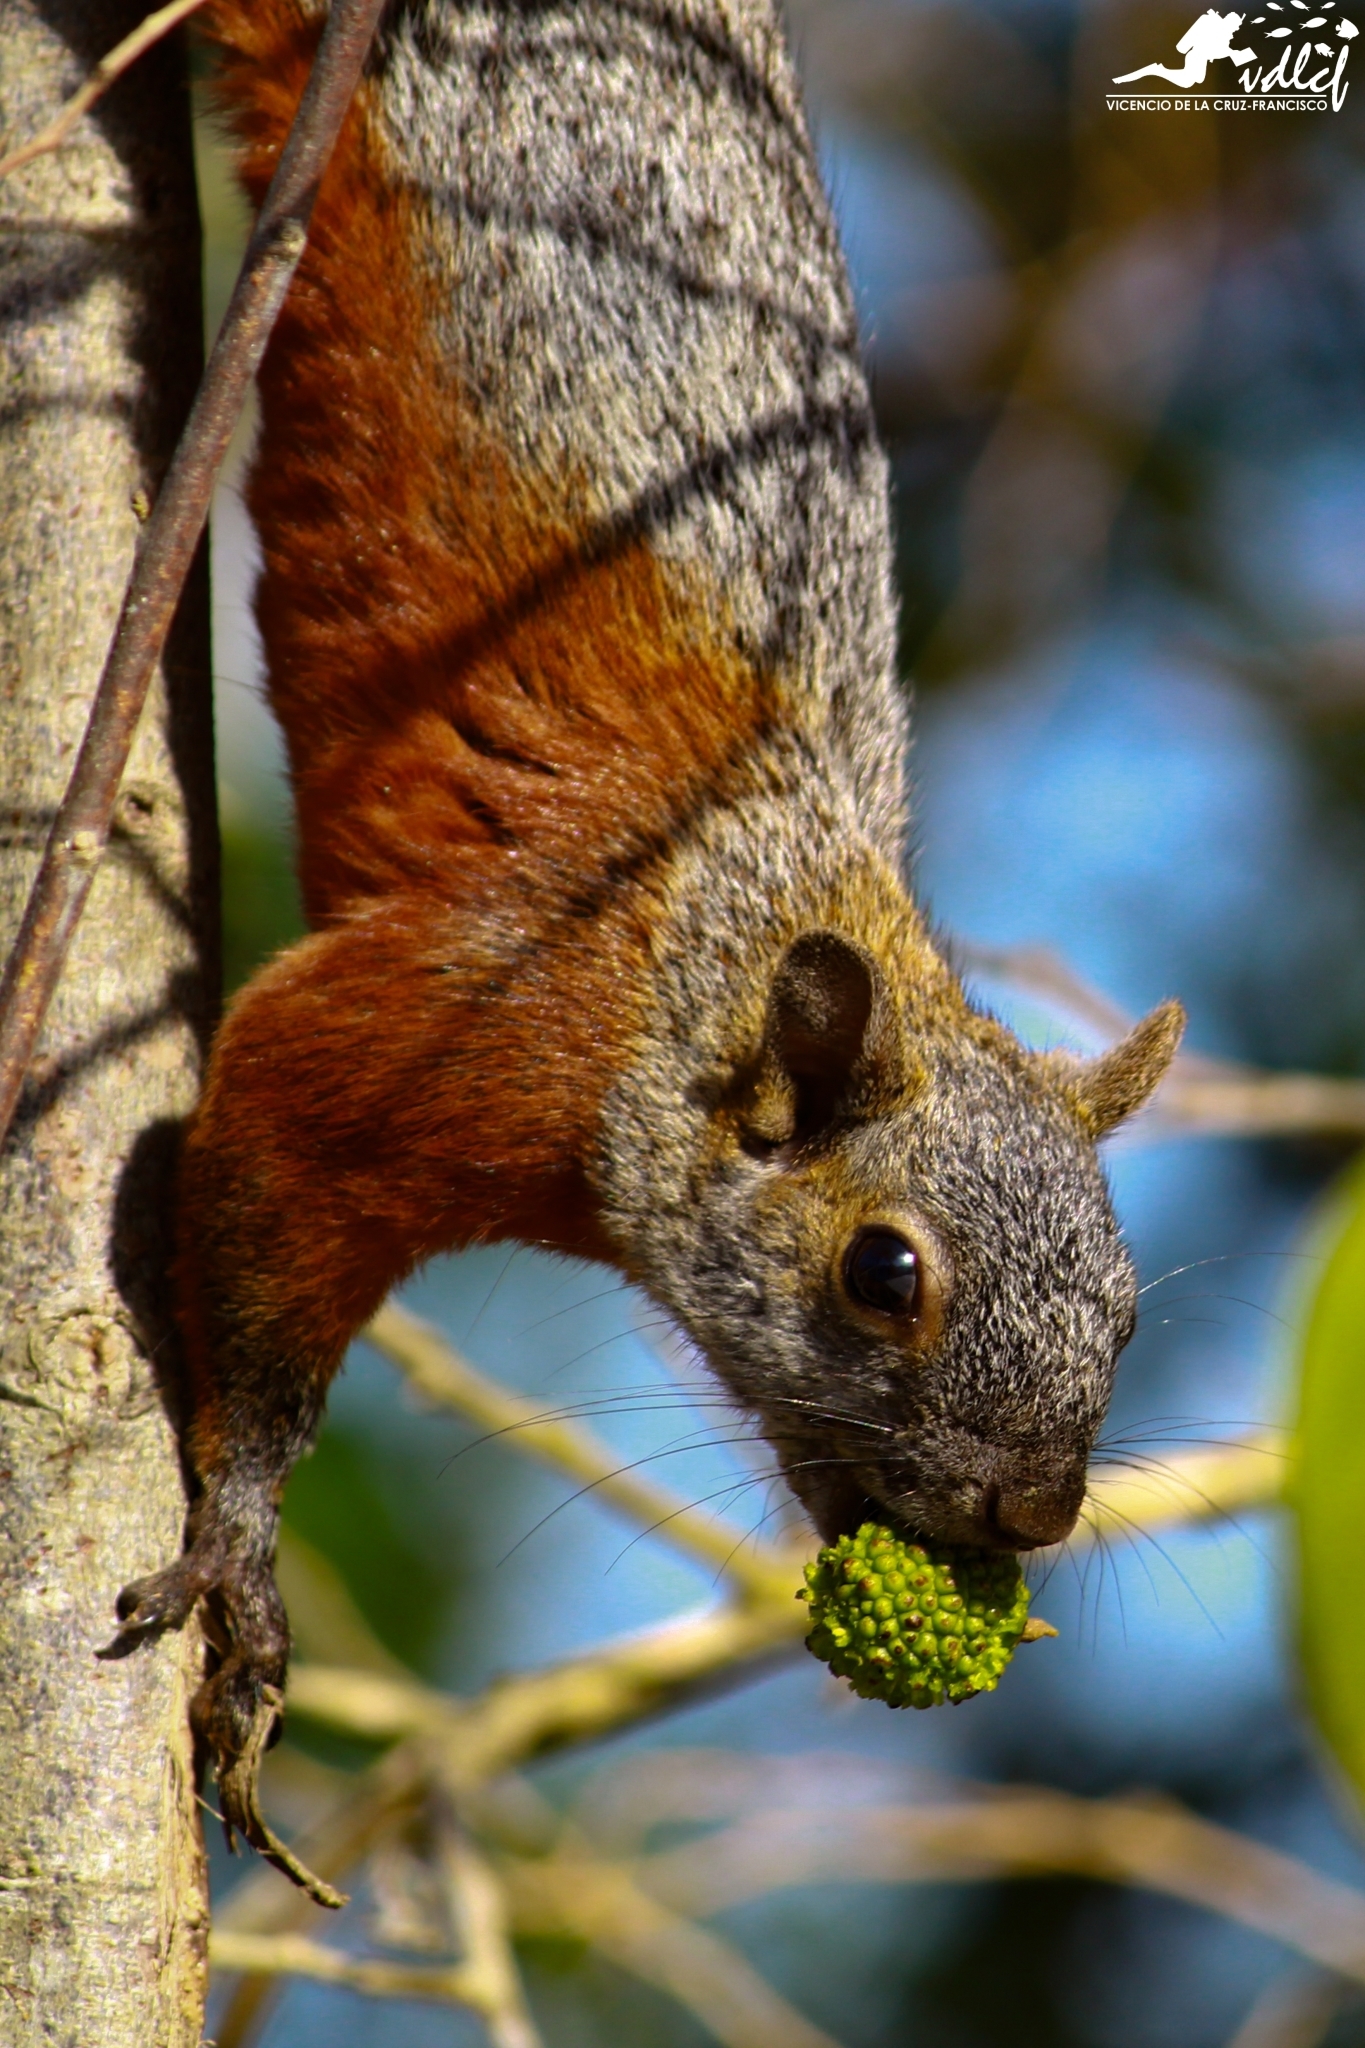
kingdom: Animalia
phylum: Chordata
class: Mammalia
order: Rodentia
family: Sciuridae
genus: Sciurus
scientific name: Sciurus aureogaster
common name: Red-bellied squirrel
